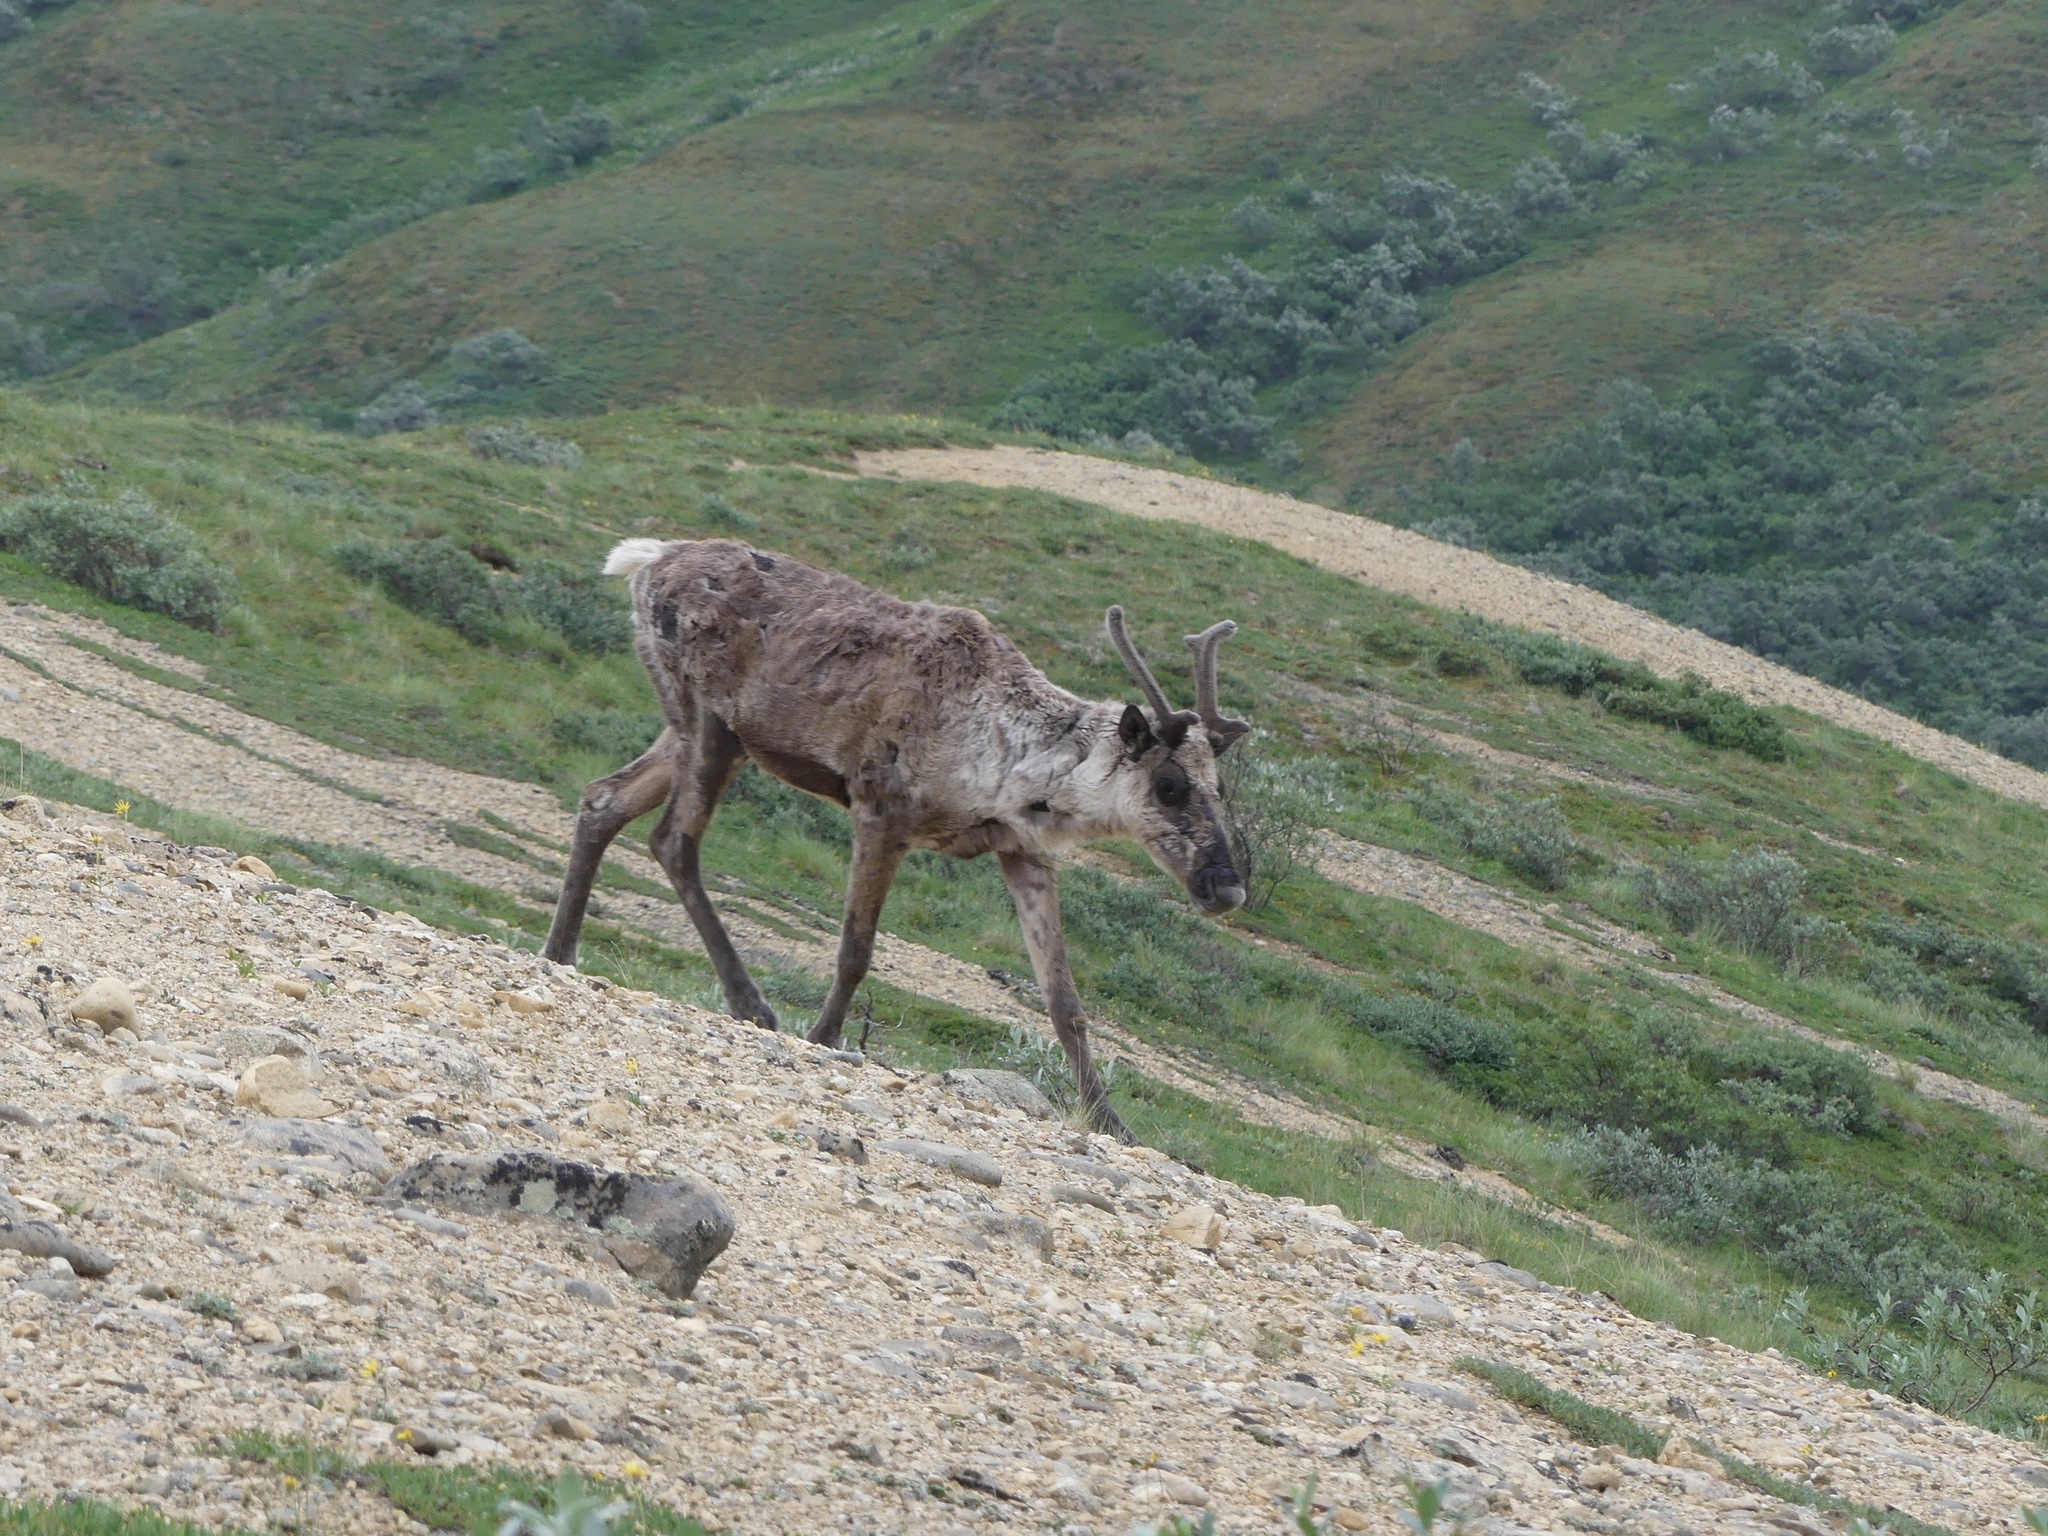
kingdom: Animalia
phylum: Chordata
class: Mammalia
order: Artiodactyla
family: Cervidae
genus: Rangifer
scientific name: Rangifer tarandus
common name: Reindeer
